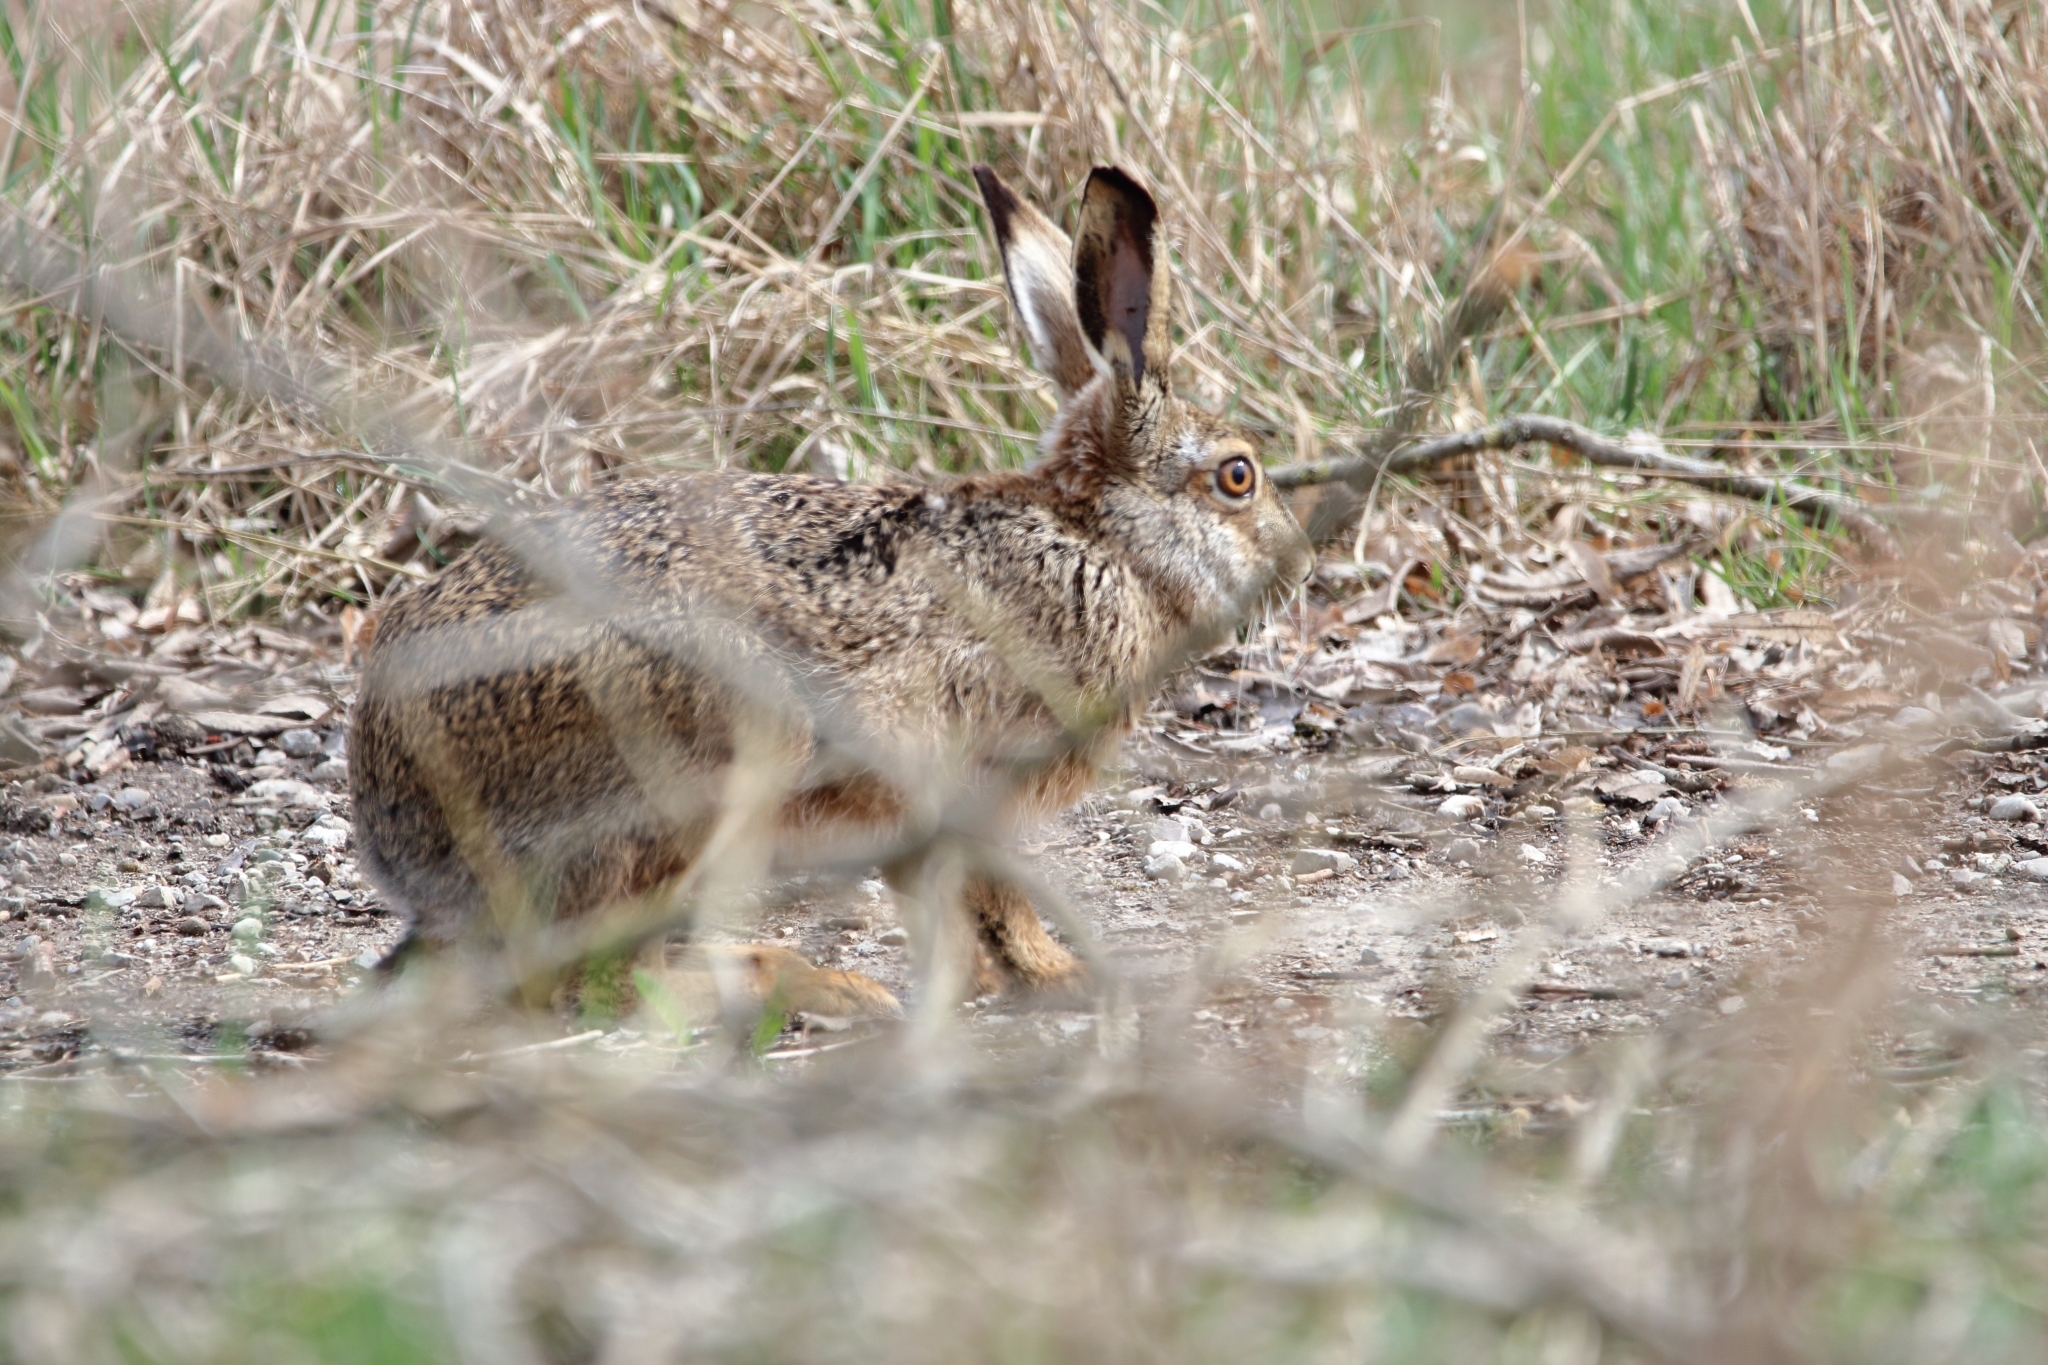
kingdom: Animalia
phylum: Chordata
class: Mammalia
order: Lagomorpha
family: Leporidae
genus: Lepus
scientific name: Lepus europaeus
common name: European hare
